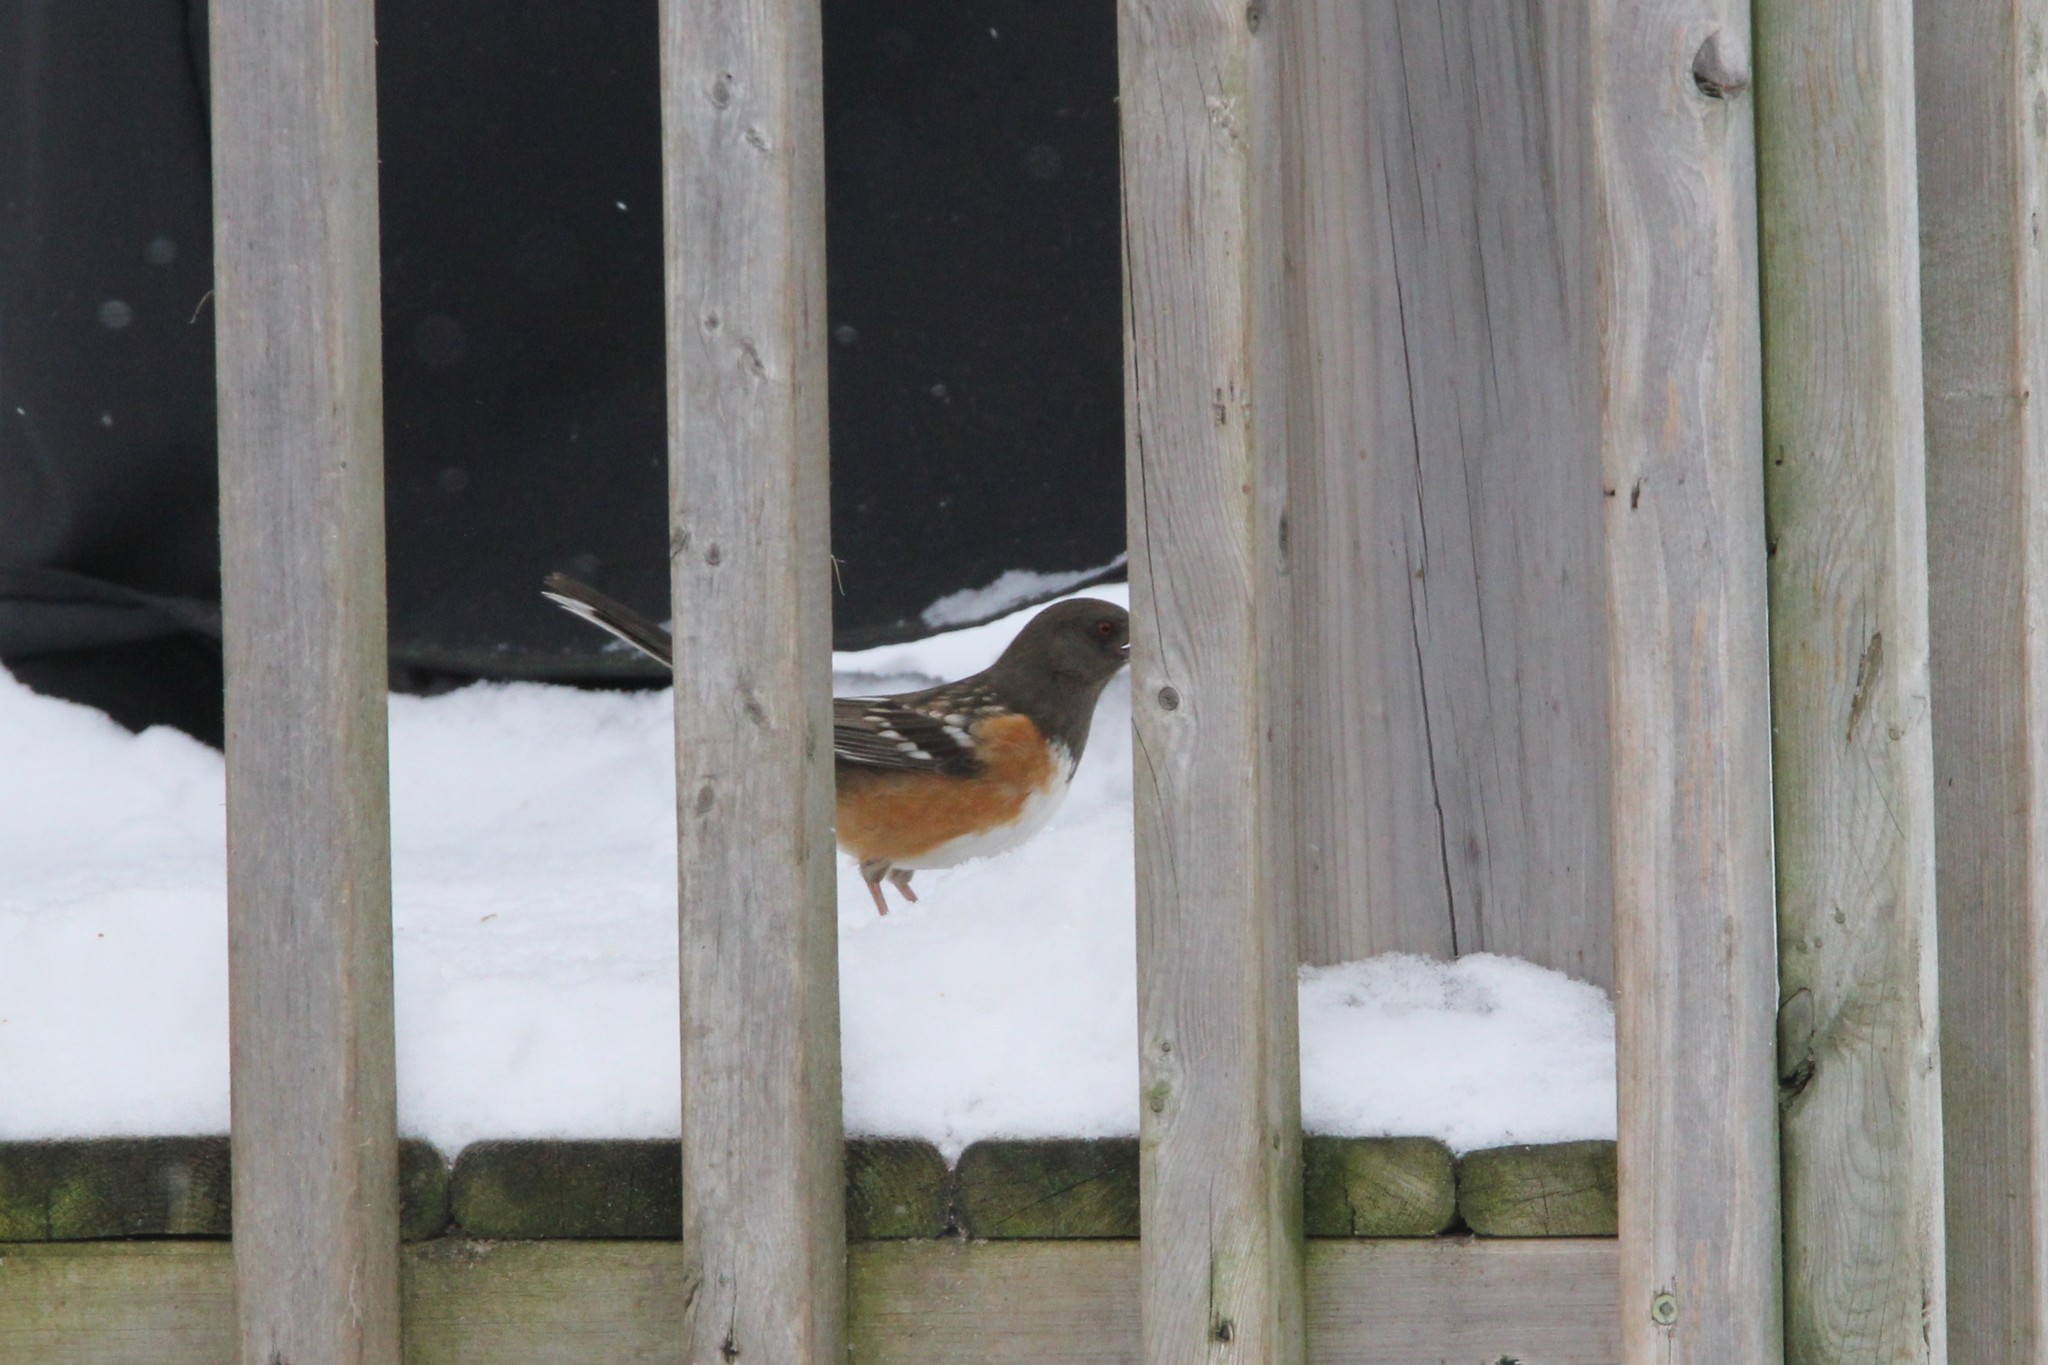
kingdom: Animalia
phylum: Chordata
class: Aves
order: Passeriformes
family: Passerellidae
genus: Pipilo
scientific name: Pipilo maculatus
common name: Spotted towhee
